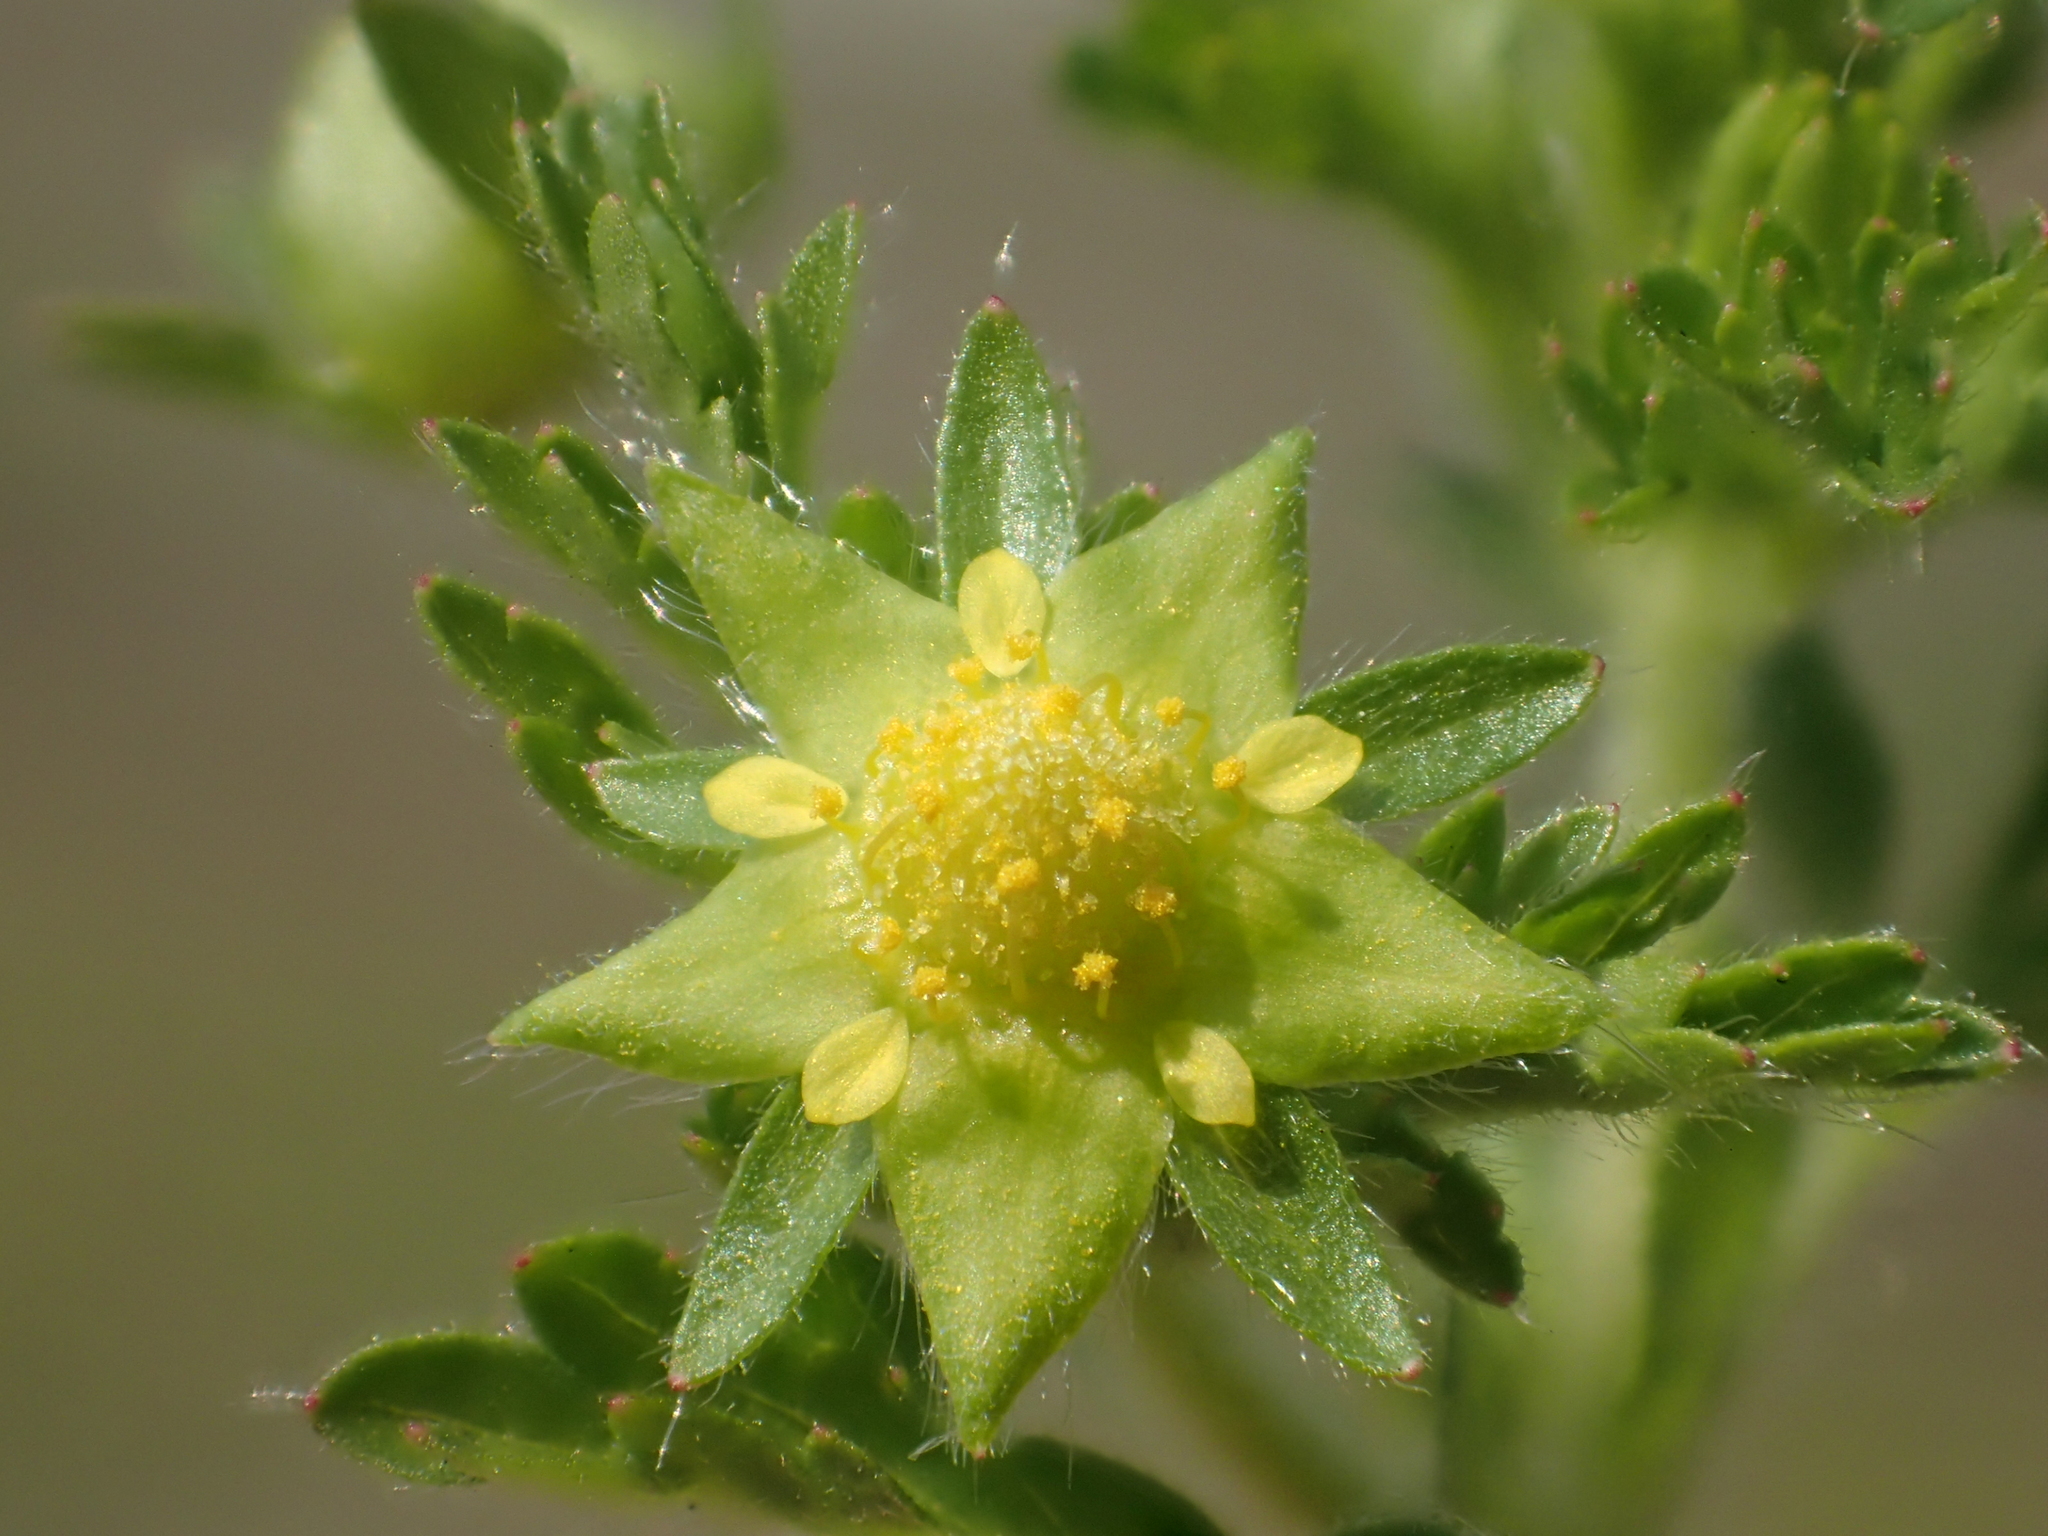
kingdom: Plantae
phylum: Tracheophyta
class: Magnoliopsida
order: Rosales
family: Rosaceae
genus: Potentilla
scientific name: Potentilla heynei
